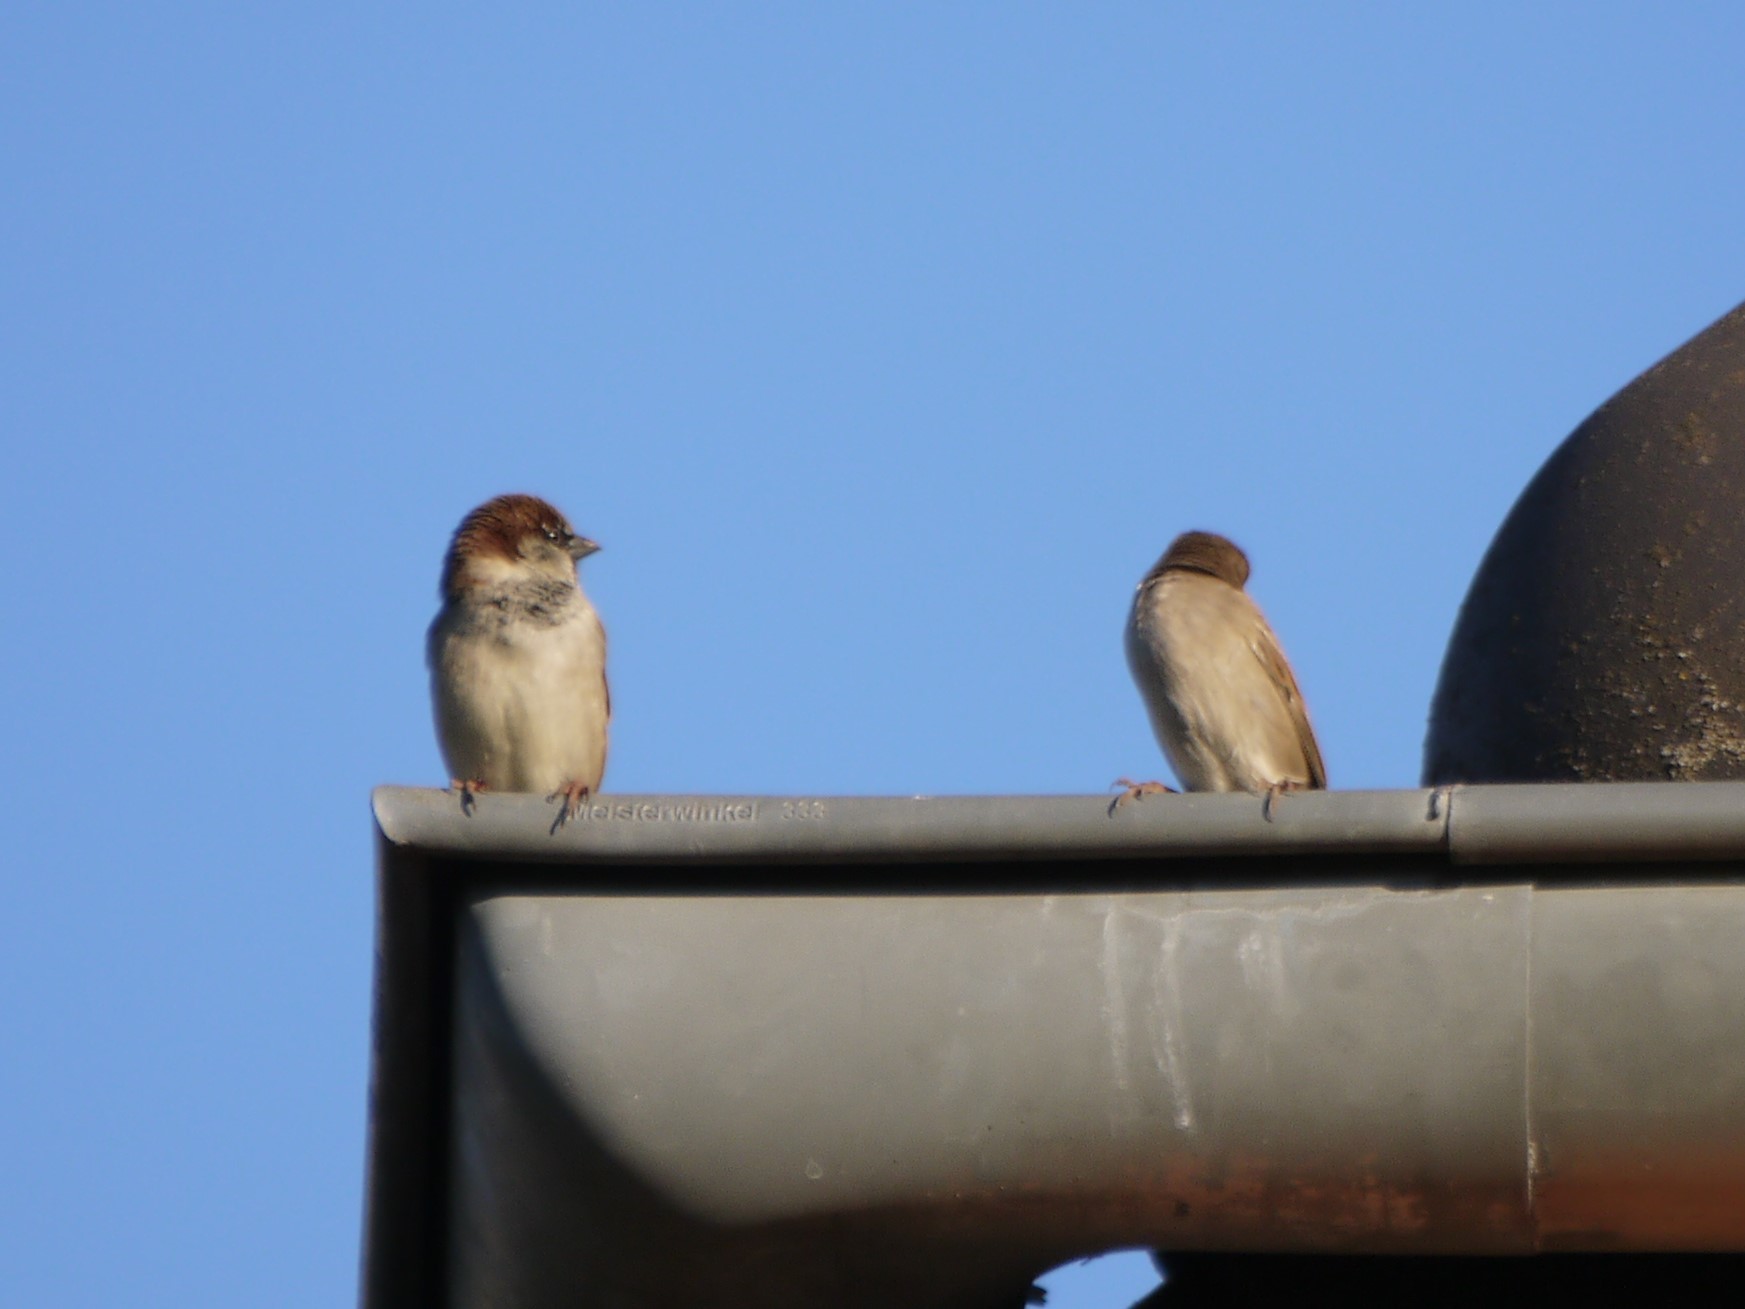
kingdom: Animalia
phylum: Chordata
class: Aves
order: Passeriformes
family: Passeridae
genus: Passer
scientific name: Passer domesticus
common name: House sparrow
